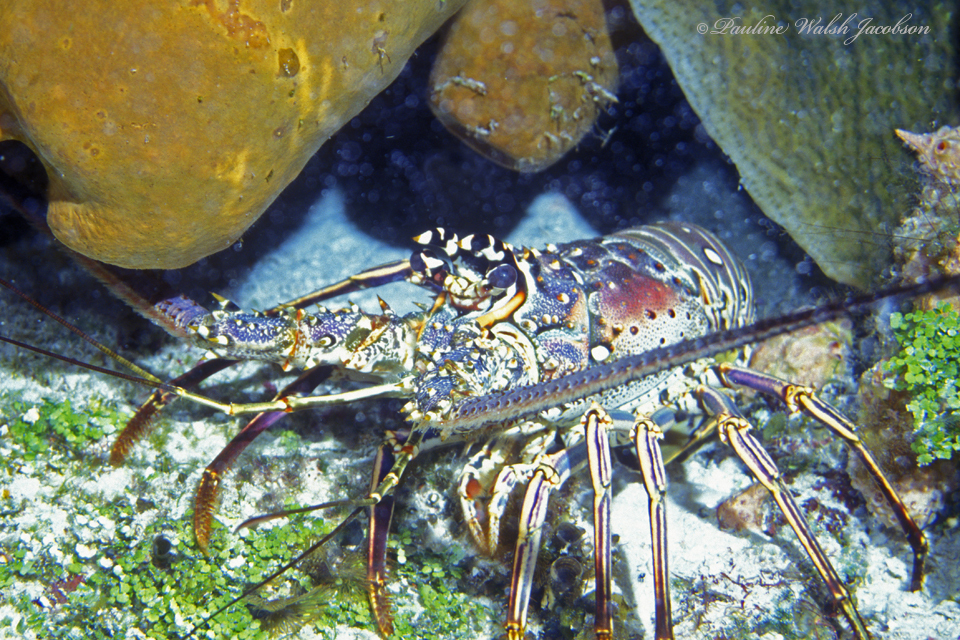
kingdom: Animalia
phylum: Arthropoda
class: Malacostraca
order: Decapoda
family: Palinuridae
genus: Panulirus
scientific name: Panulirus argus
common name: Caribbean spiny lobster
